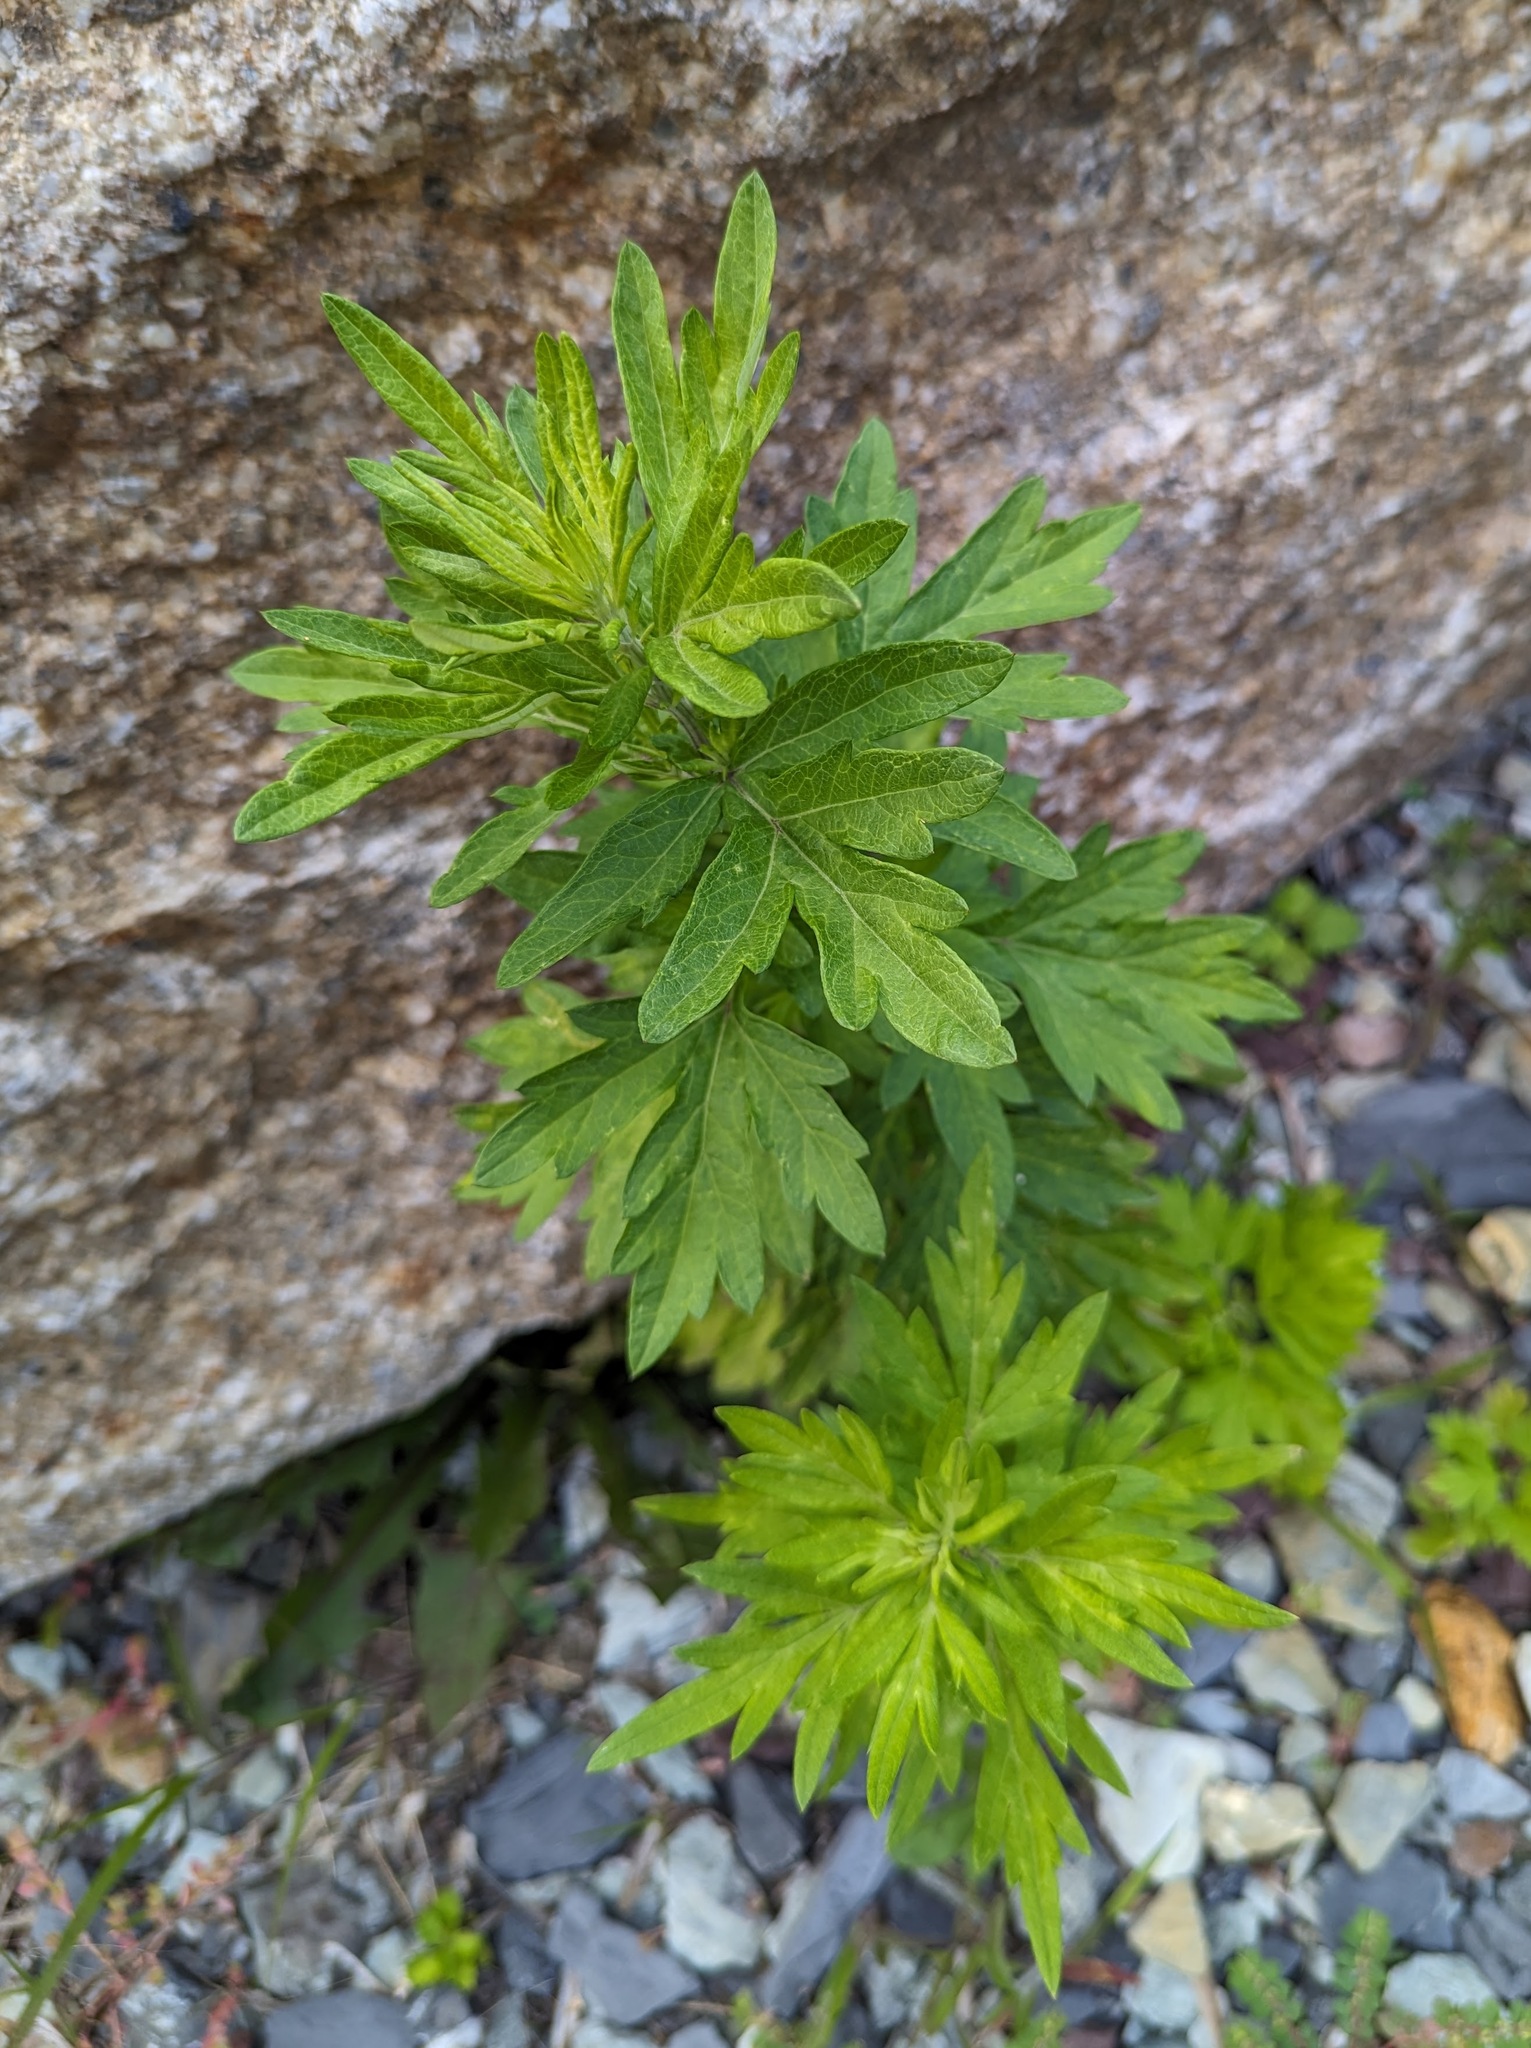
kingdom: Plantae
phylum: Tracheophyta
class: Magnoliopsida
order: Asterales
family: Asteraceae
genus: Artemisia
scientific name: Artemisia vulgaris
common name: Mugwort
